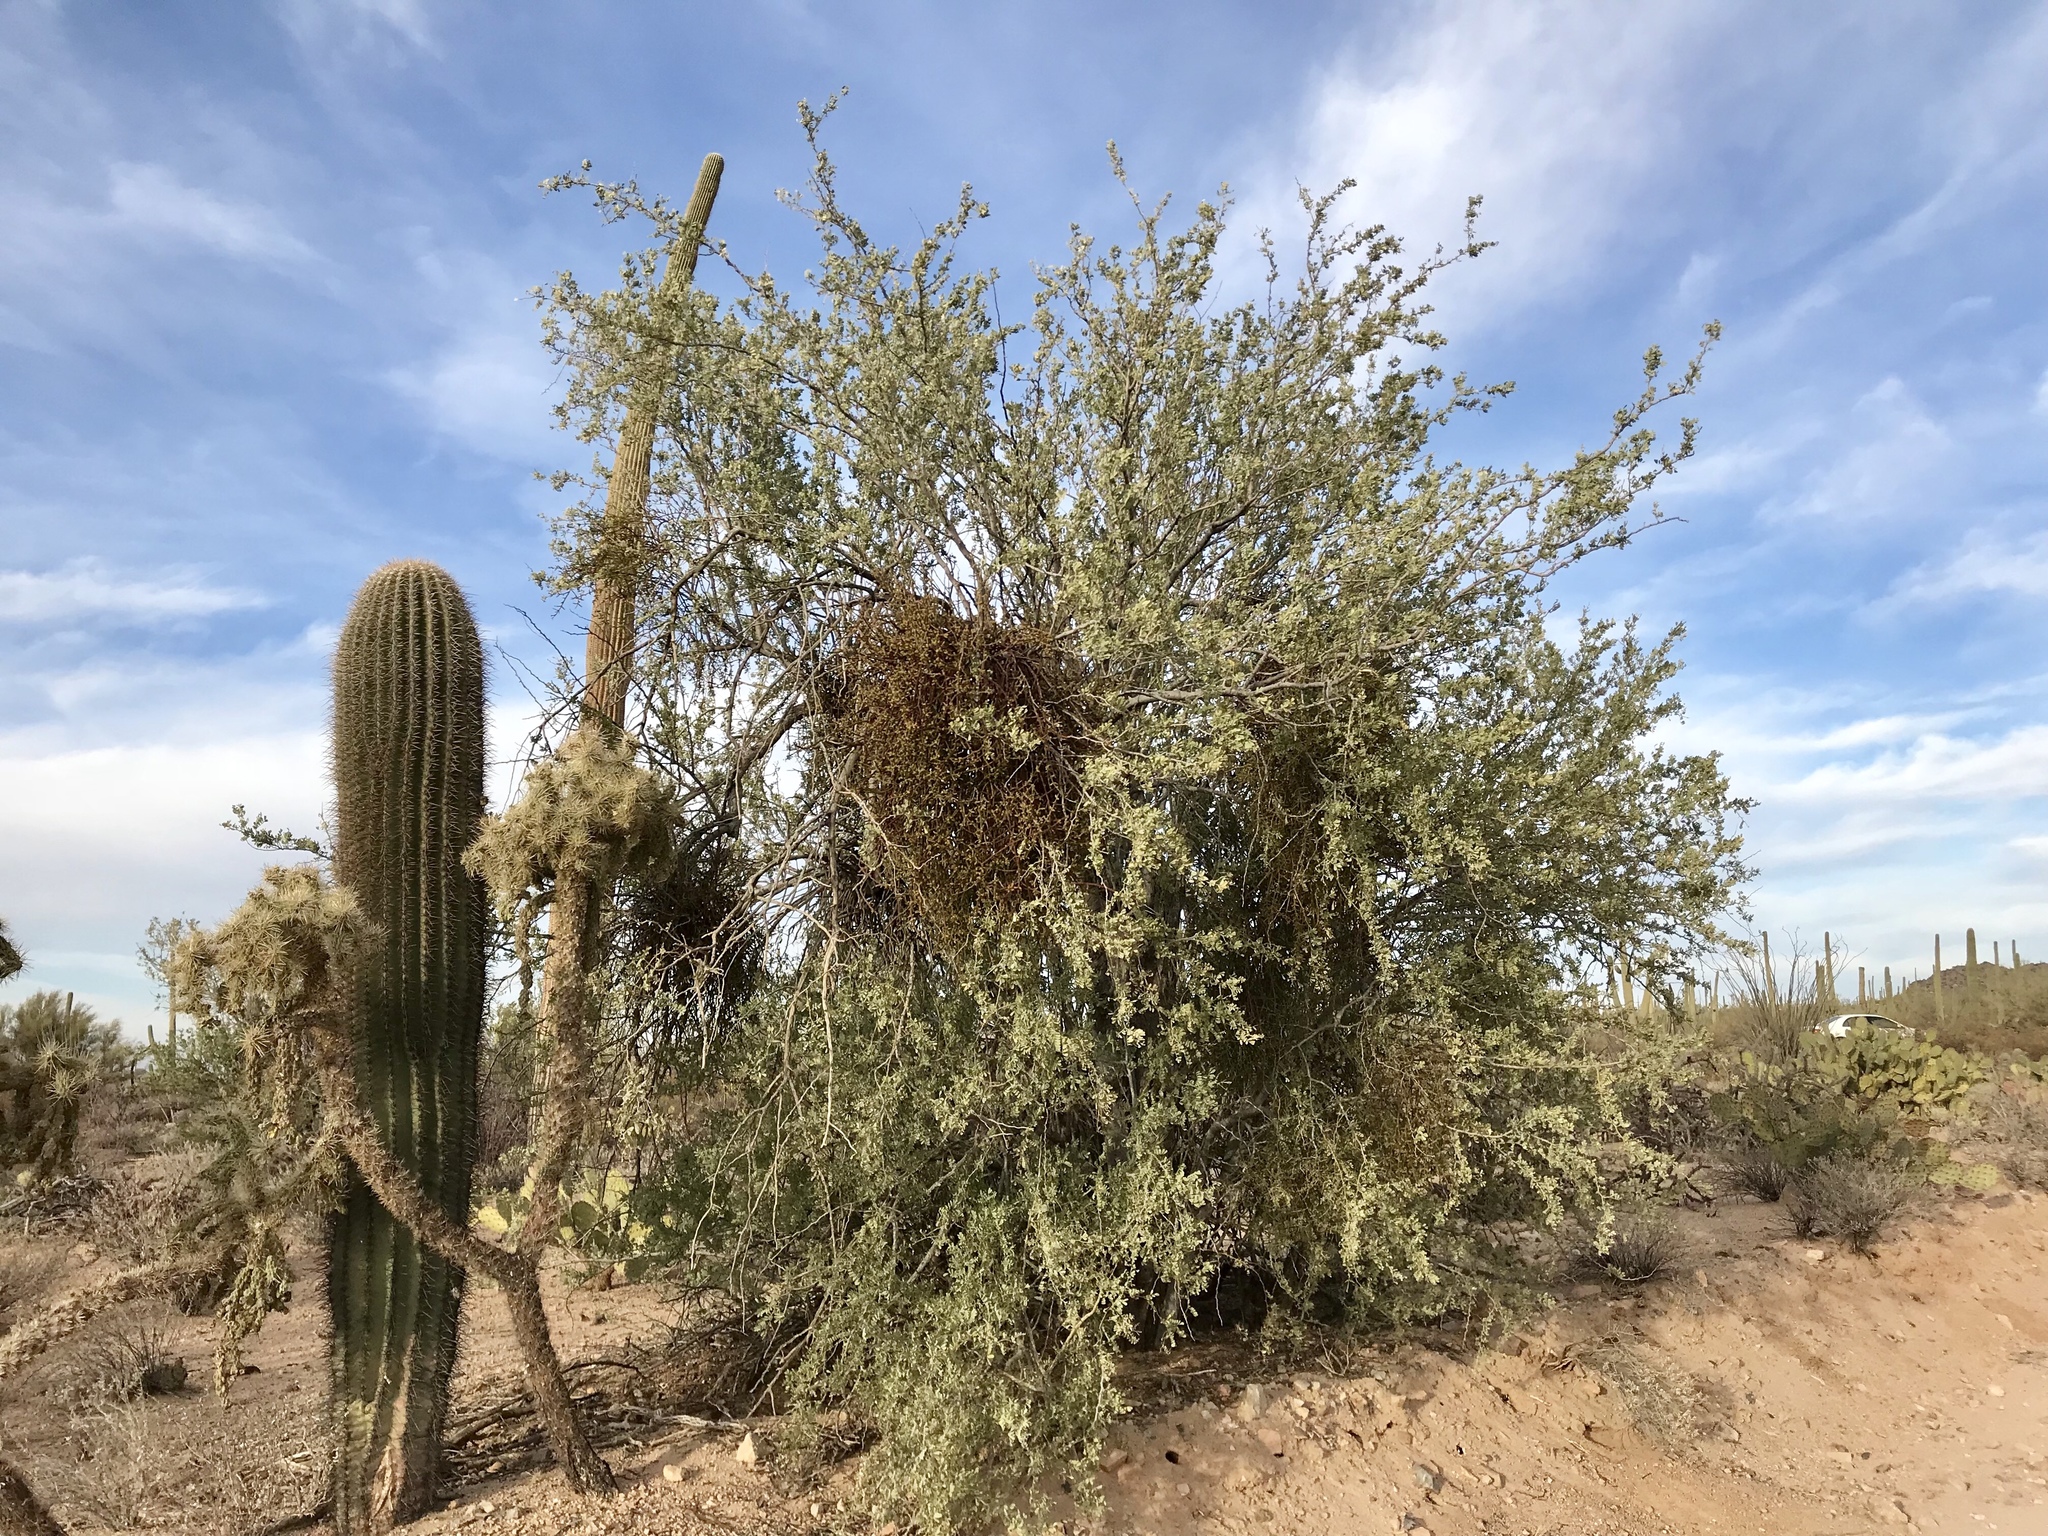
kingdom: Plantae
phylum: Tracheophyta
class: Magnoliopsida
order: Fabales
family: Fabaceae
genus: Olneya
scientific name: Olneya tesota
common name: Desert ironwood
